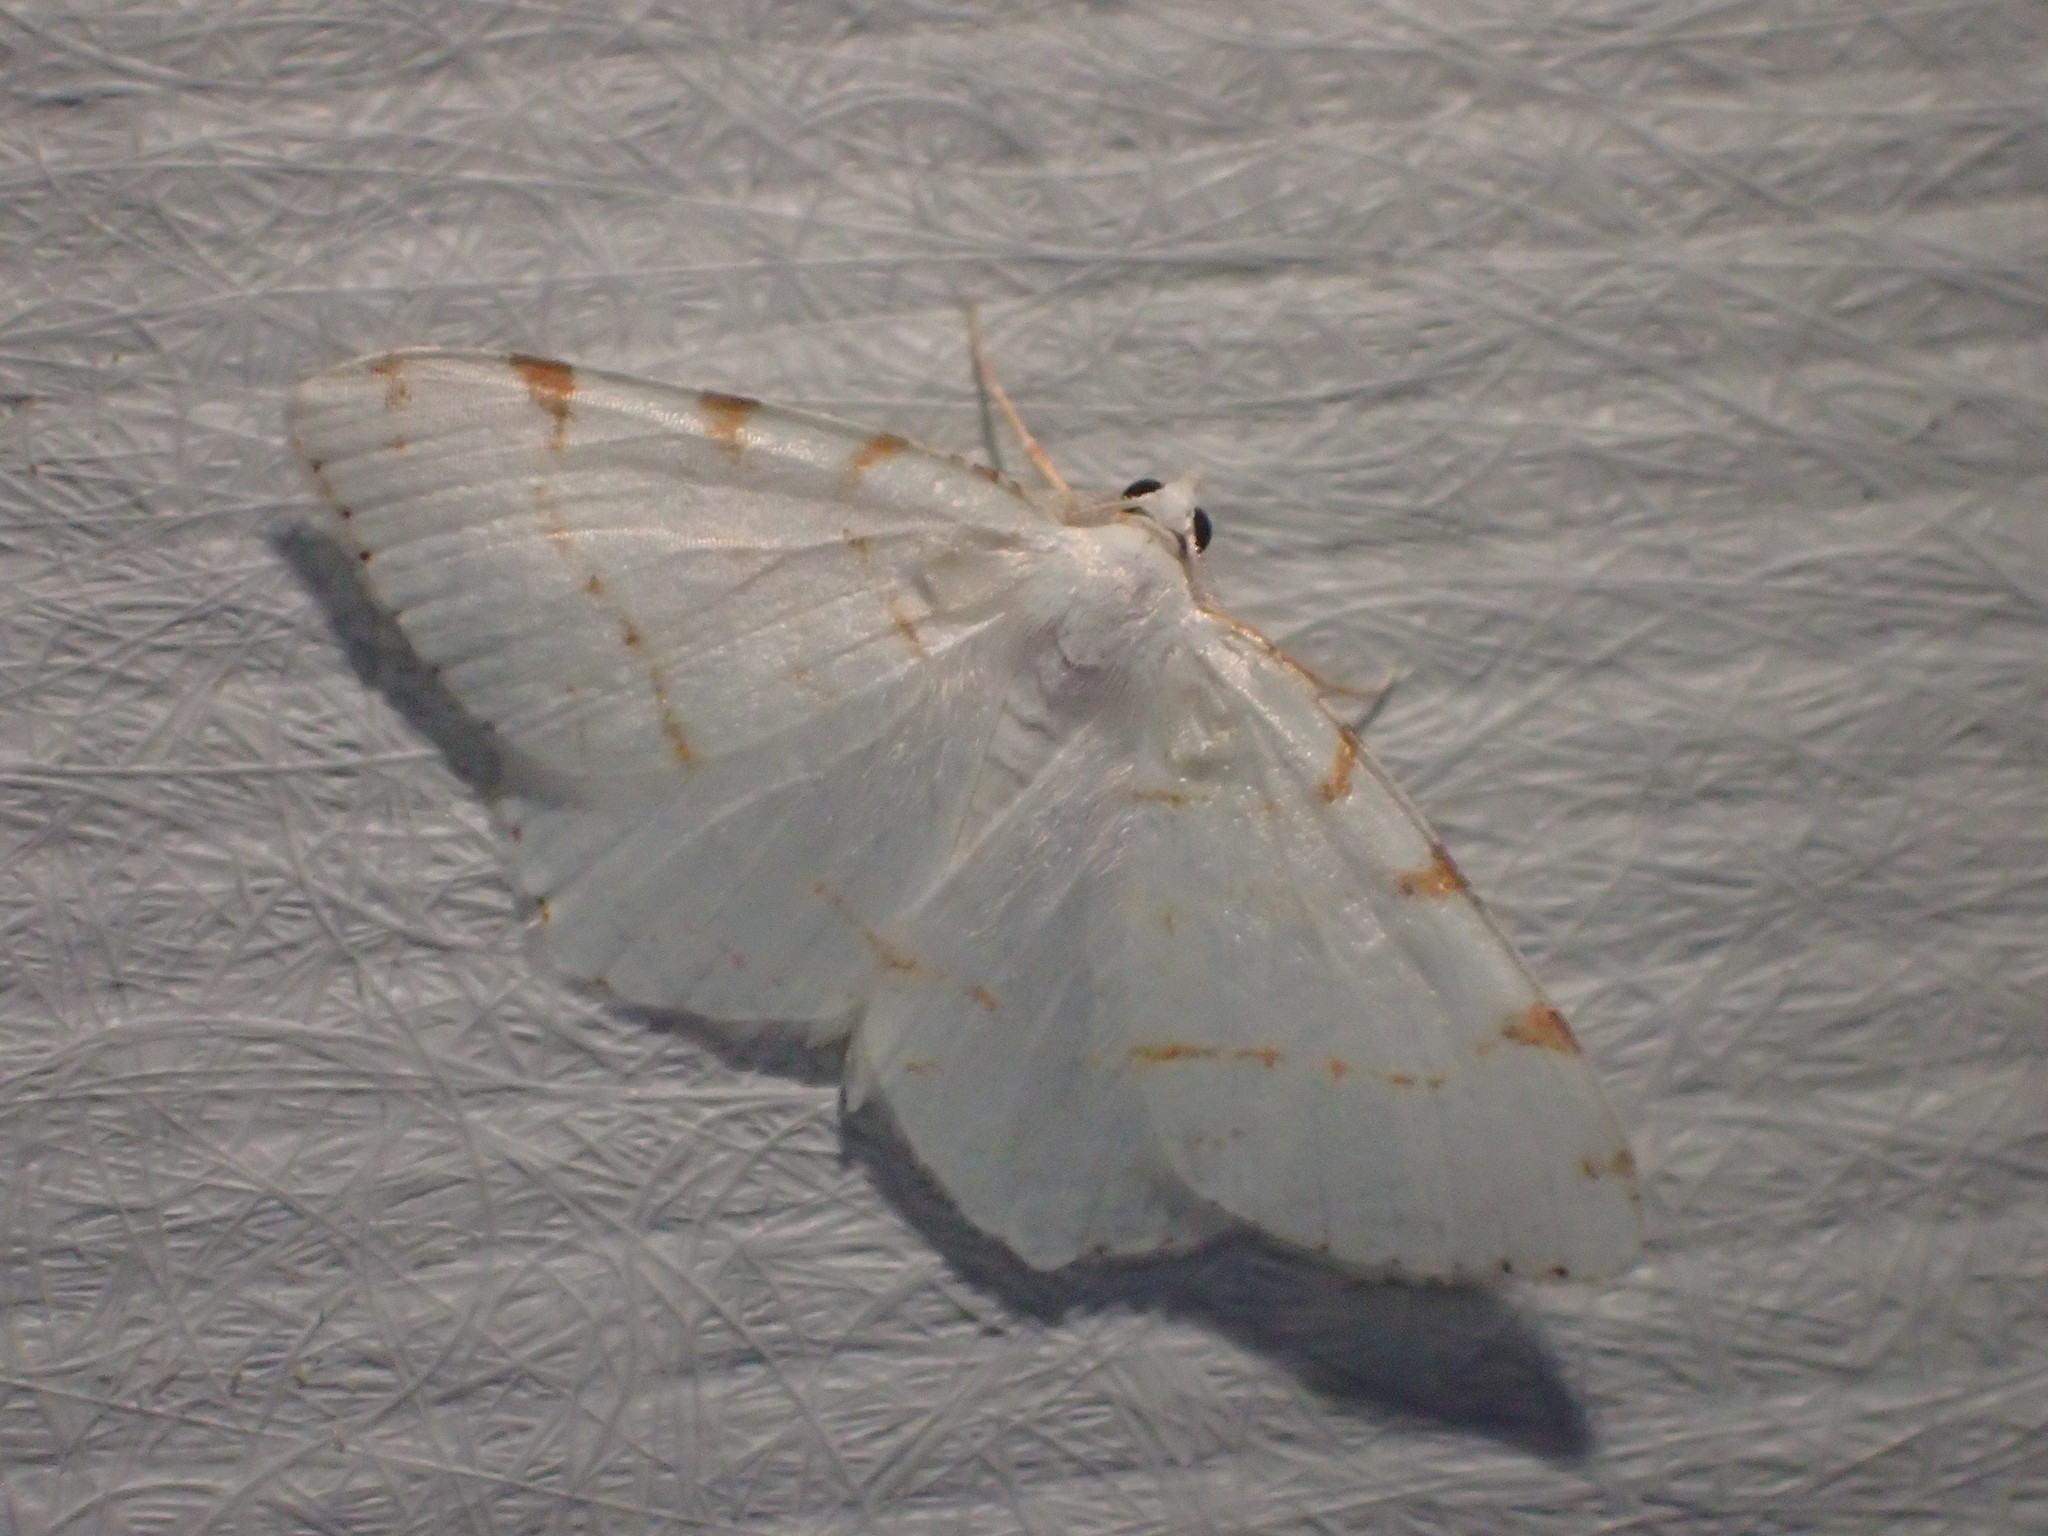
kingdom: Animalia
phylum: Arthropoda
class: Insecta
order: Lepidoptera
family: Geometridae
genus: Macaria
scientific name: Macaria pustularia
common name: Lesser maple spanworm moth
